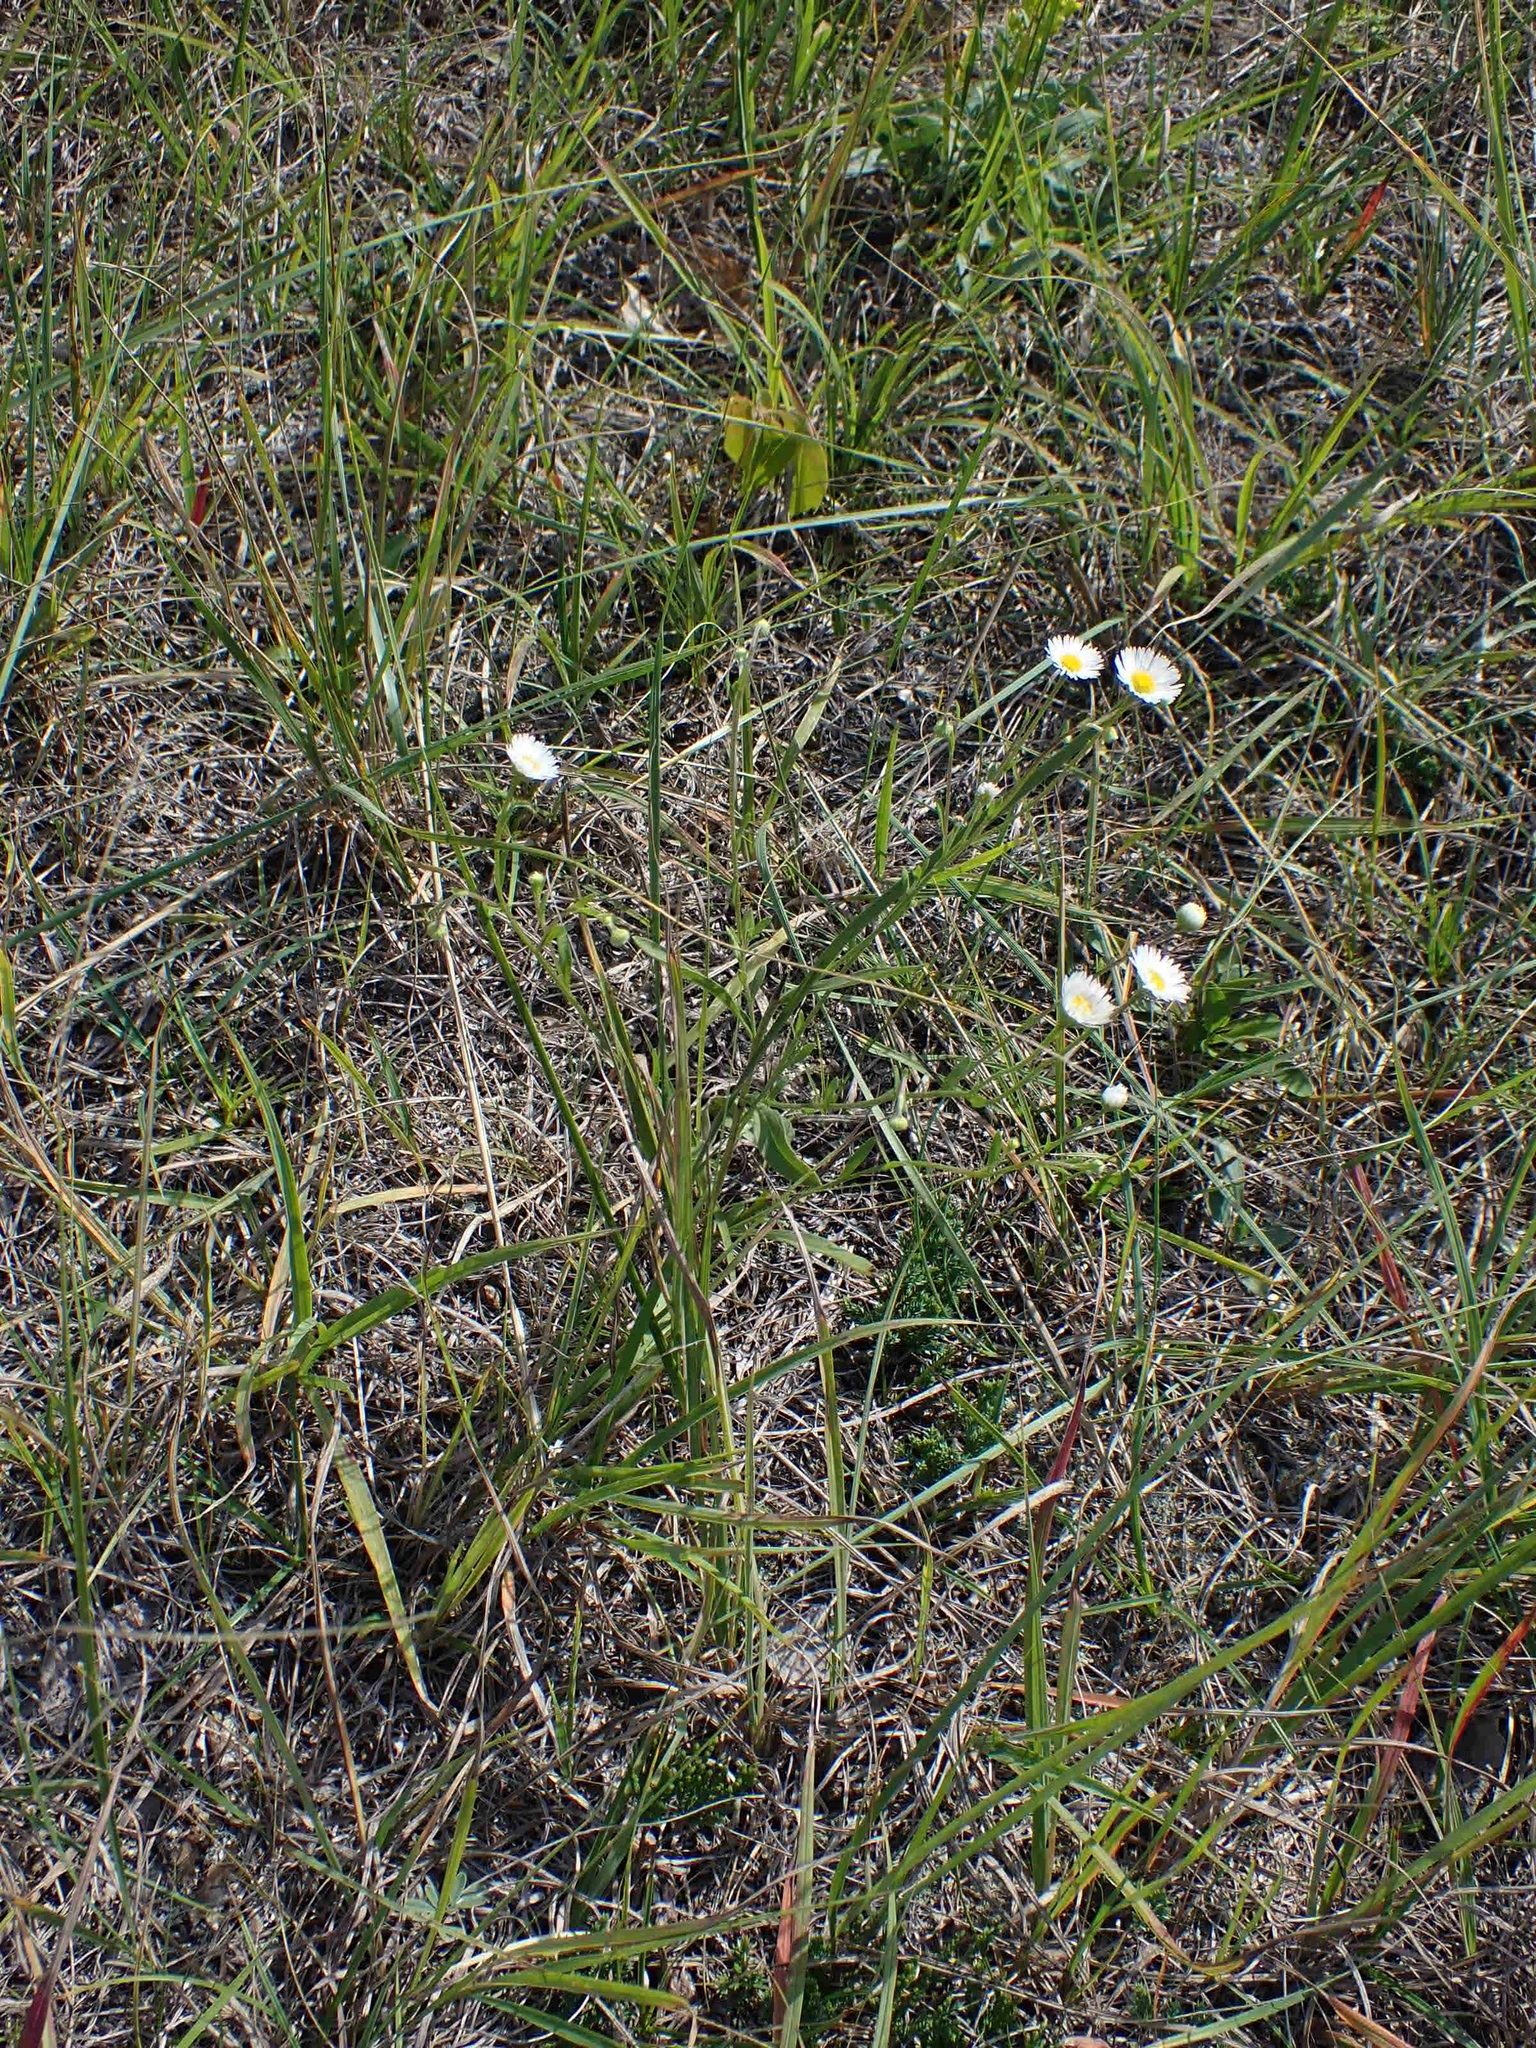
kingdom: Plantae
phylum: Tracheophyta
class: Magnoliopsida
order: Asterales
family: Asteraceae
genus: Erigeron
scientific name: Erigeron strigosus
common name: Common eastern fleabane
